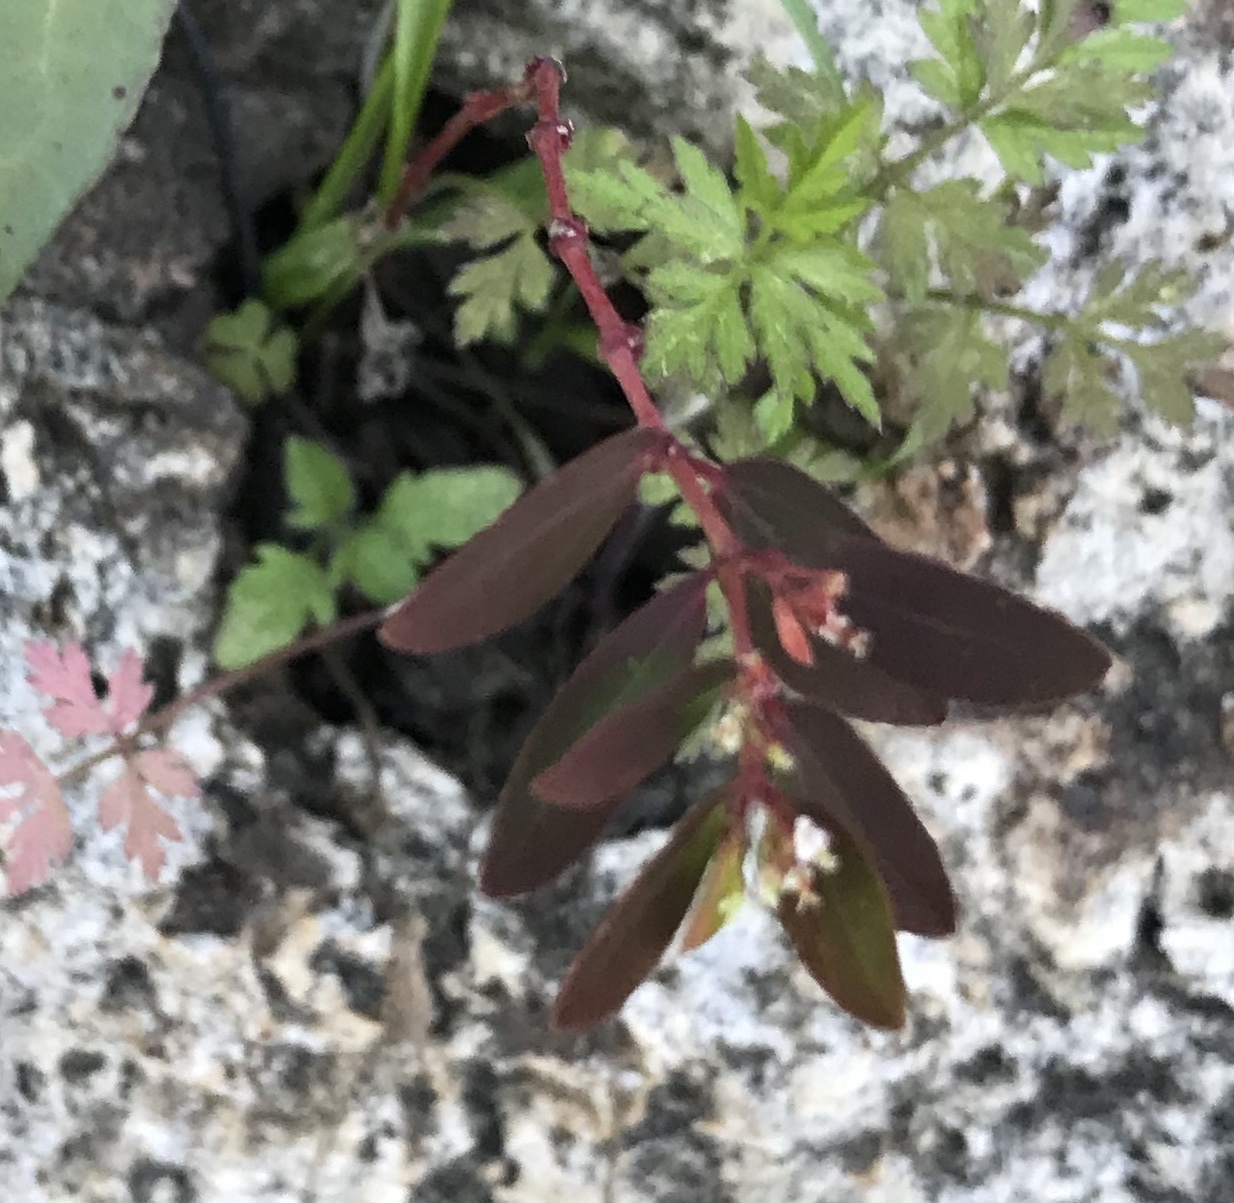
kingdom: Plantae
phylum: Tracheophyta
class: Magnoliopsida
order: Malpighiales
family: Euphorbiaceae
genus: Euphorbia
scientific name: Euphorbia hypericifolia
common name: Graceful sandmat
